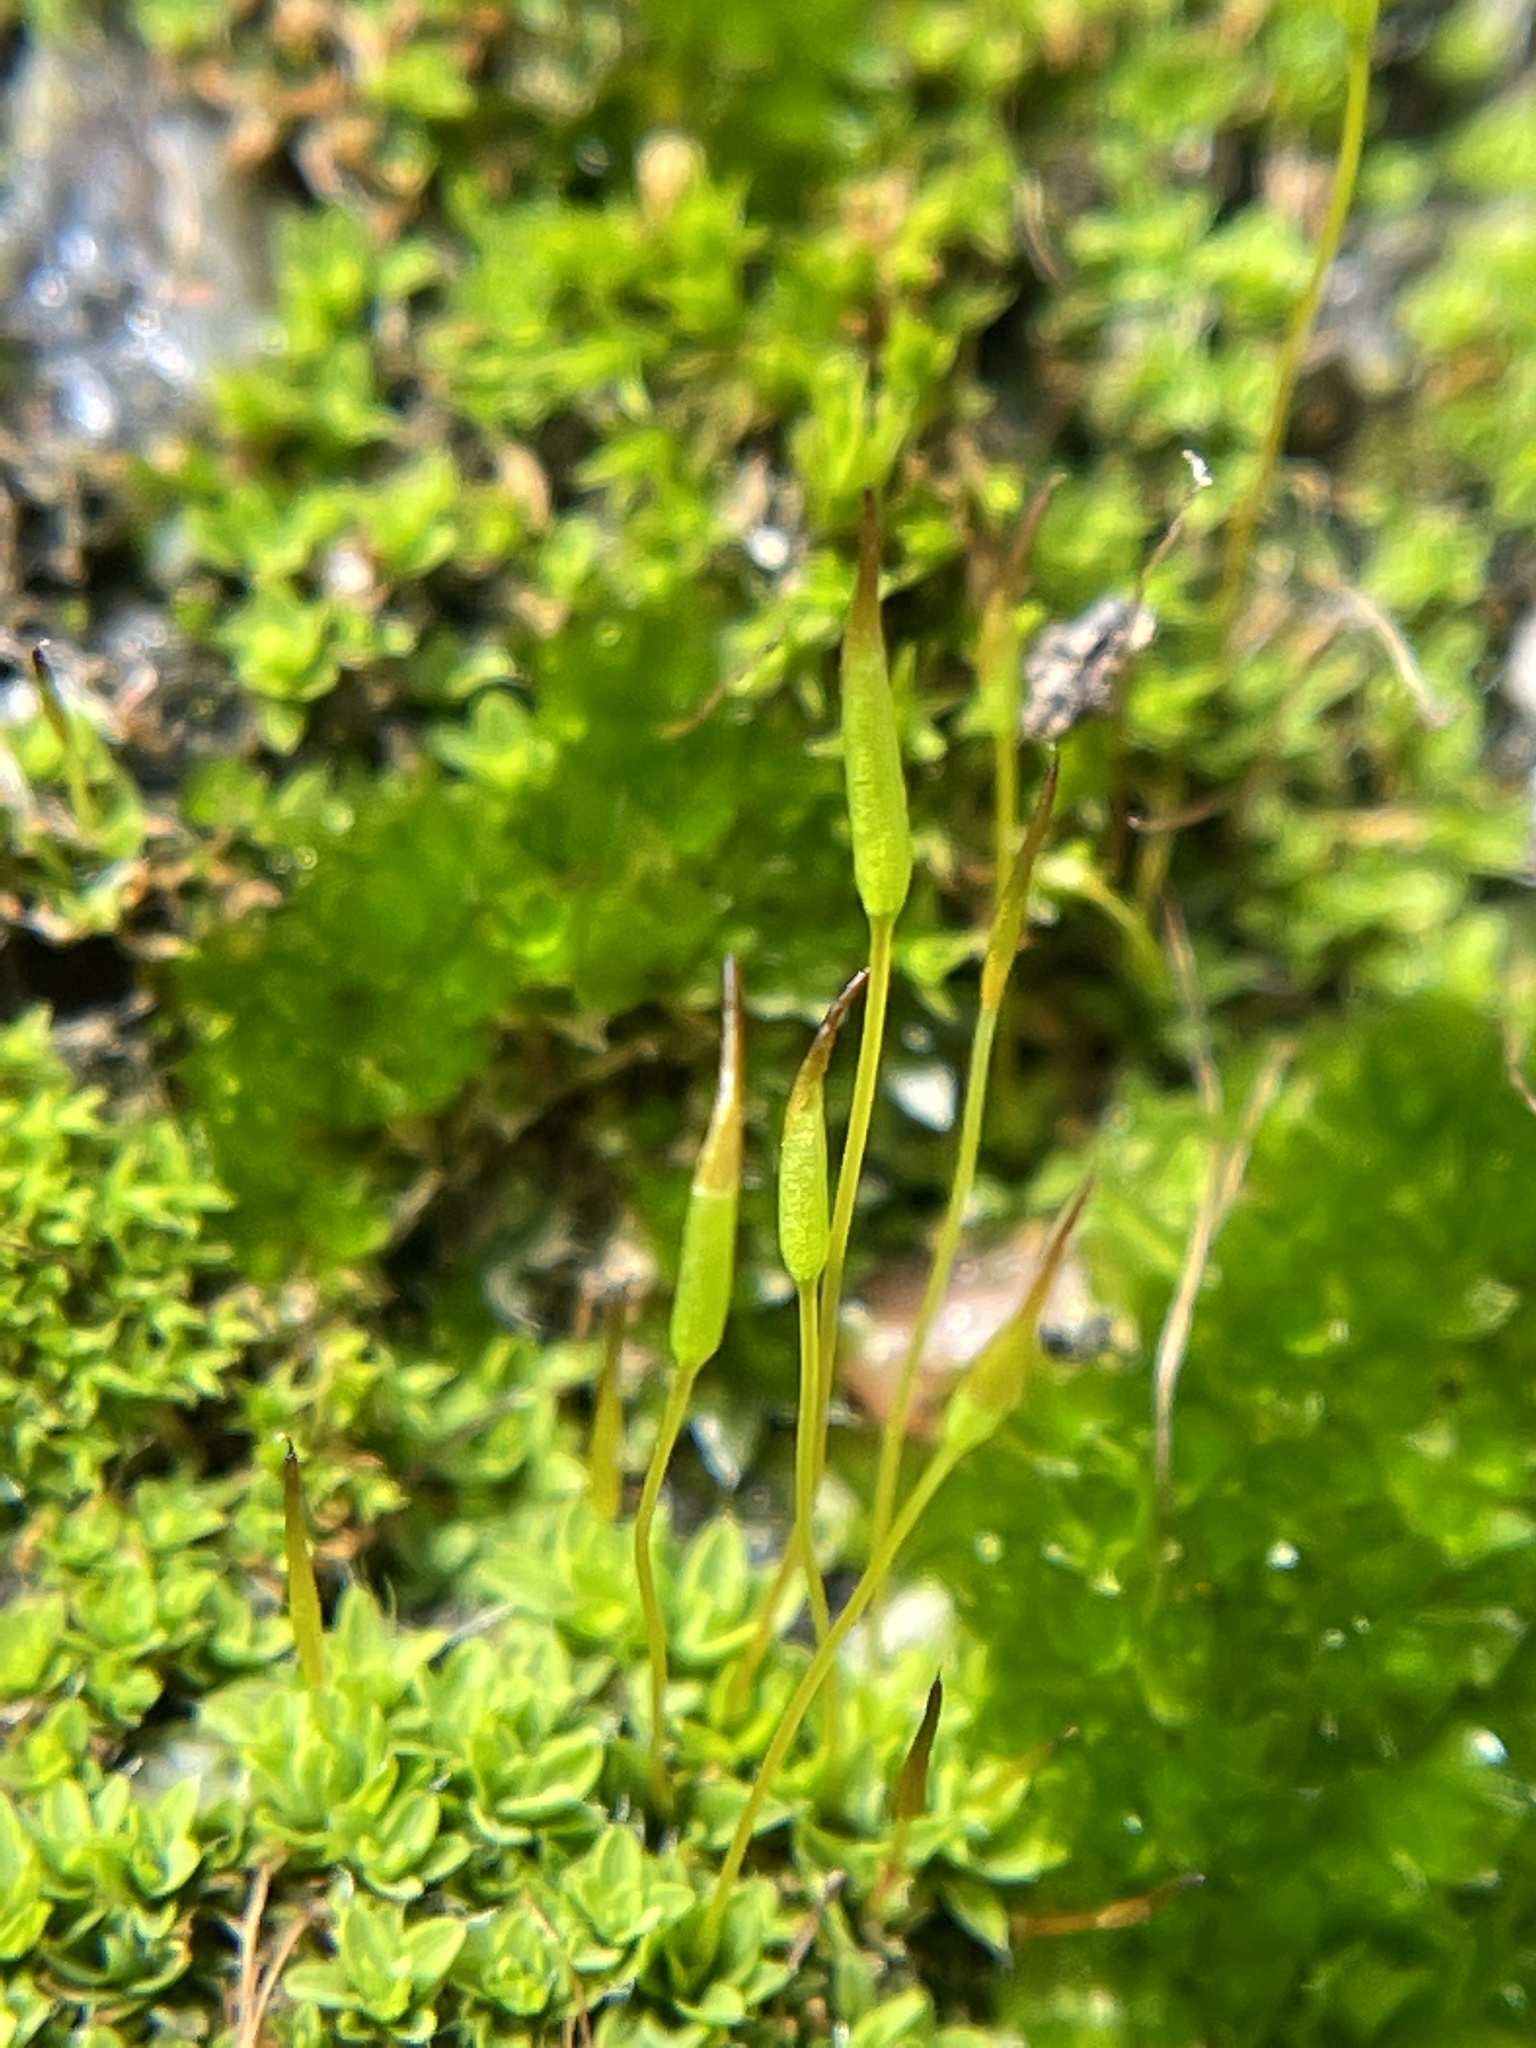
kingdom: Plantae
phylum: Bryophyta
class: Bryopsida
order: Pottiales
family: Pottiaceae
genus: Tortula
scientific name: Tortula muralis
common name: Wall screw-moss
